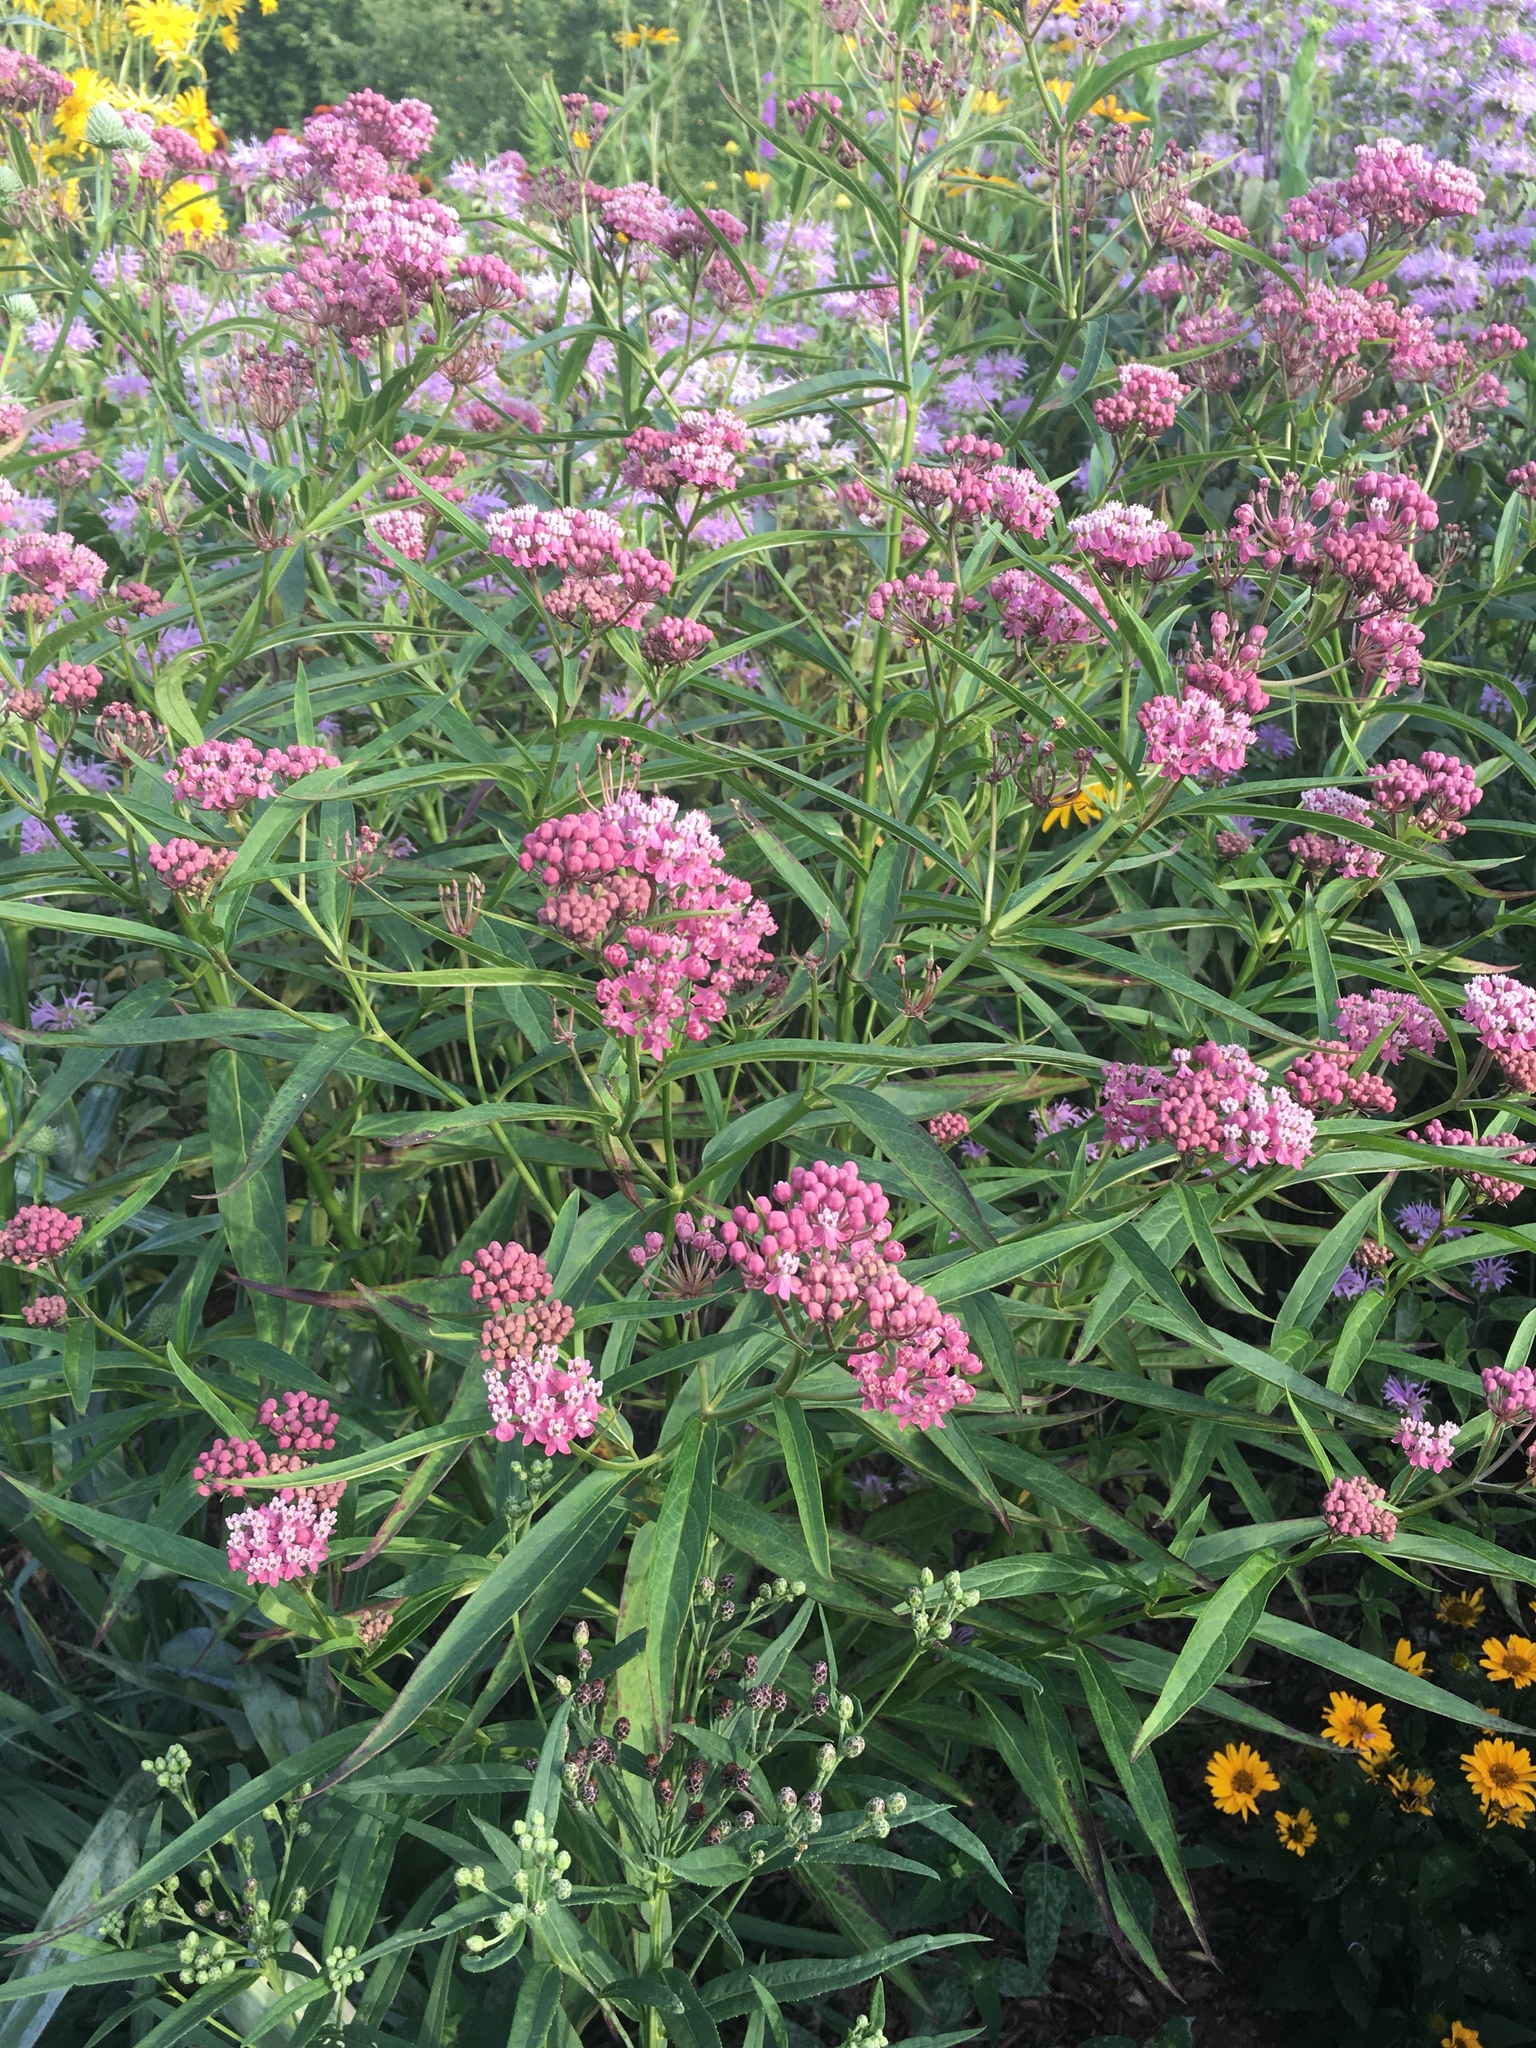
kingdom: Plantae
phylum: Tracheophyta
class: Magnoliopsida
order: Gentianales
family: Apocynaceae
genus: Asclepias
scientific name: Asclepias incarnata
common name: Swamp milkweed
